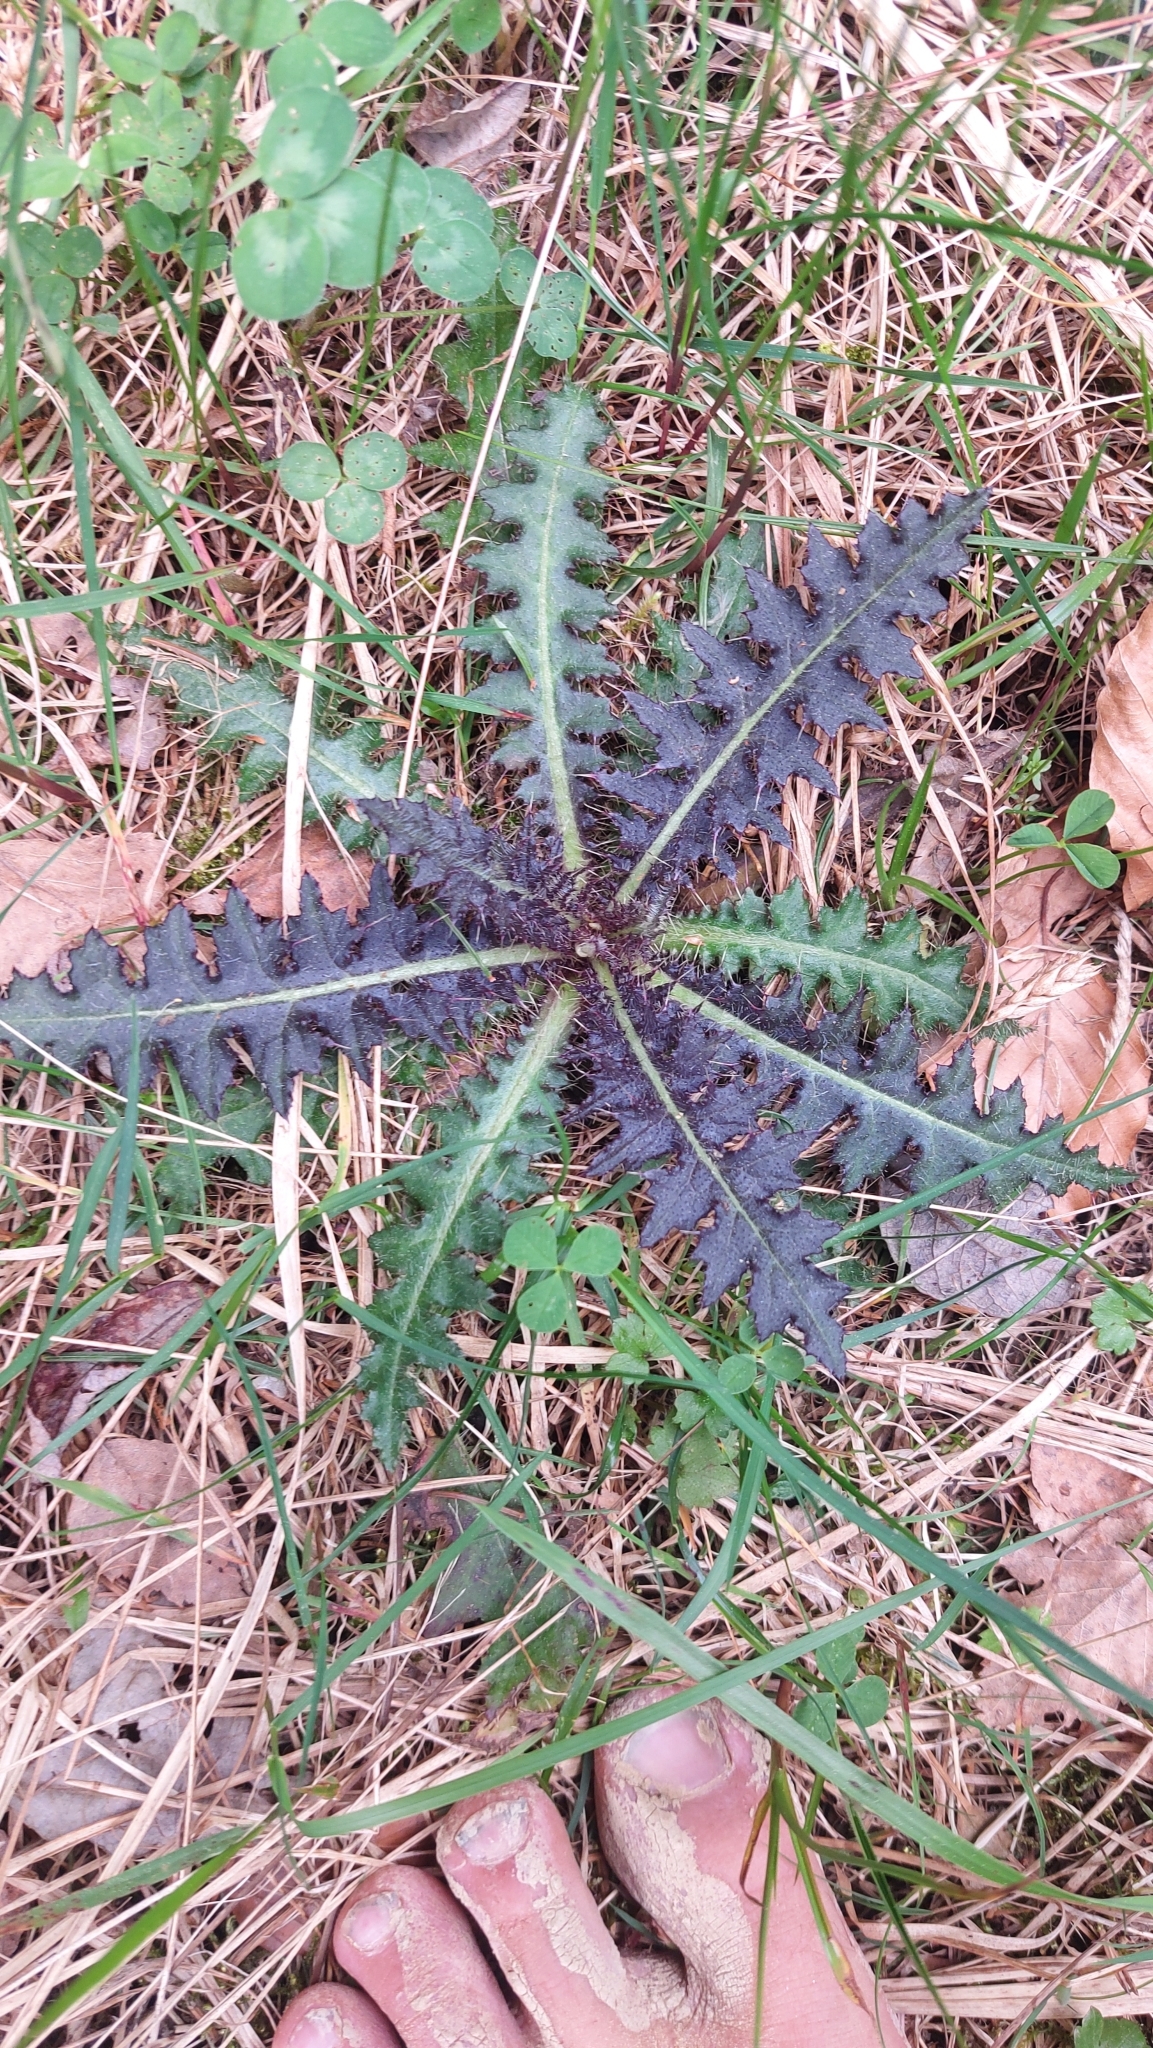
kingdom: Plantae
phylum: Tracheophyta
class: Magnoliopsida
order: Asterales
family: Asteraceae
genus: Cirsium
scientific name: Cirsium palustre
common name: Marsh thistle
